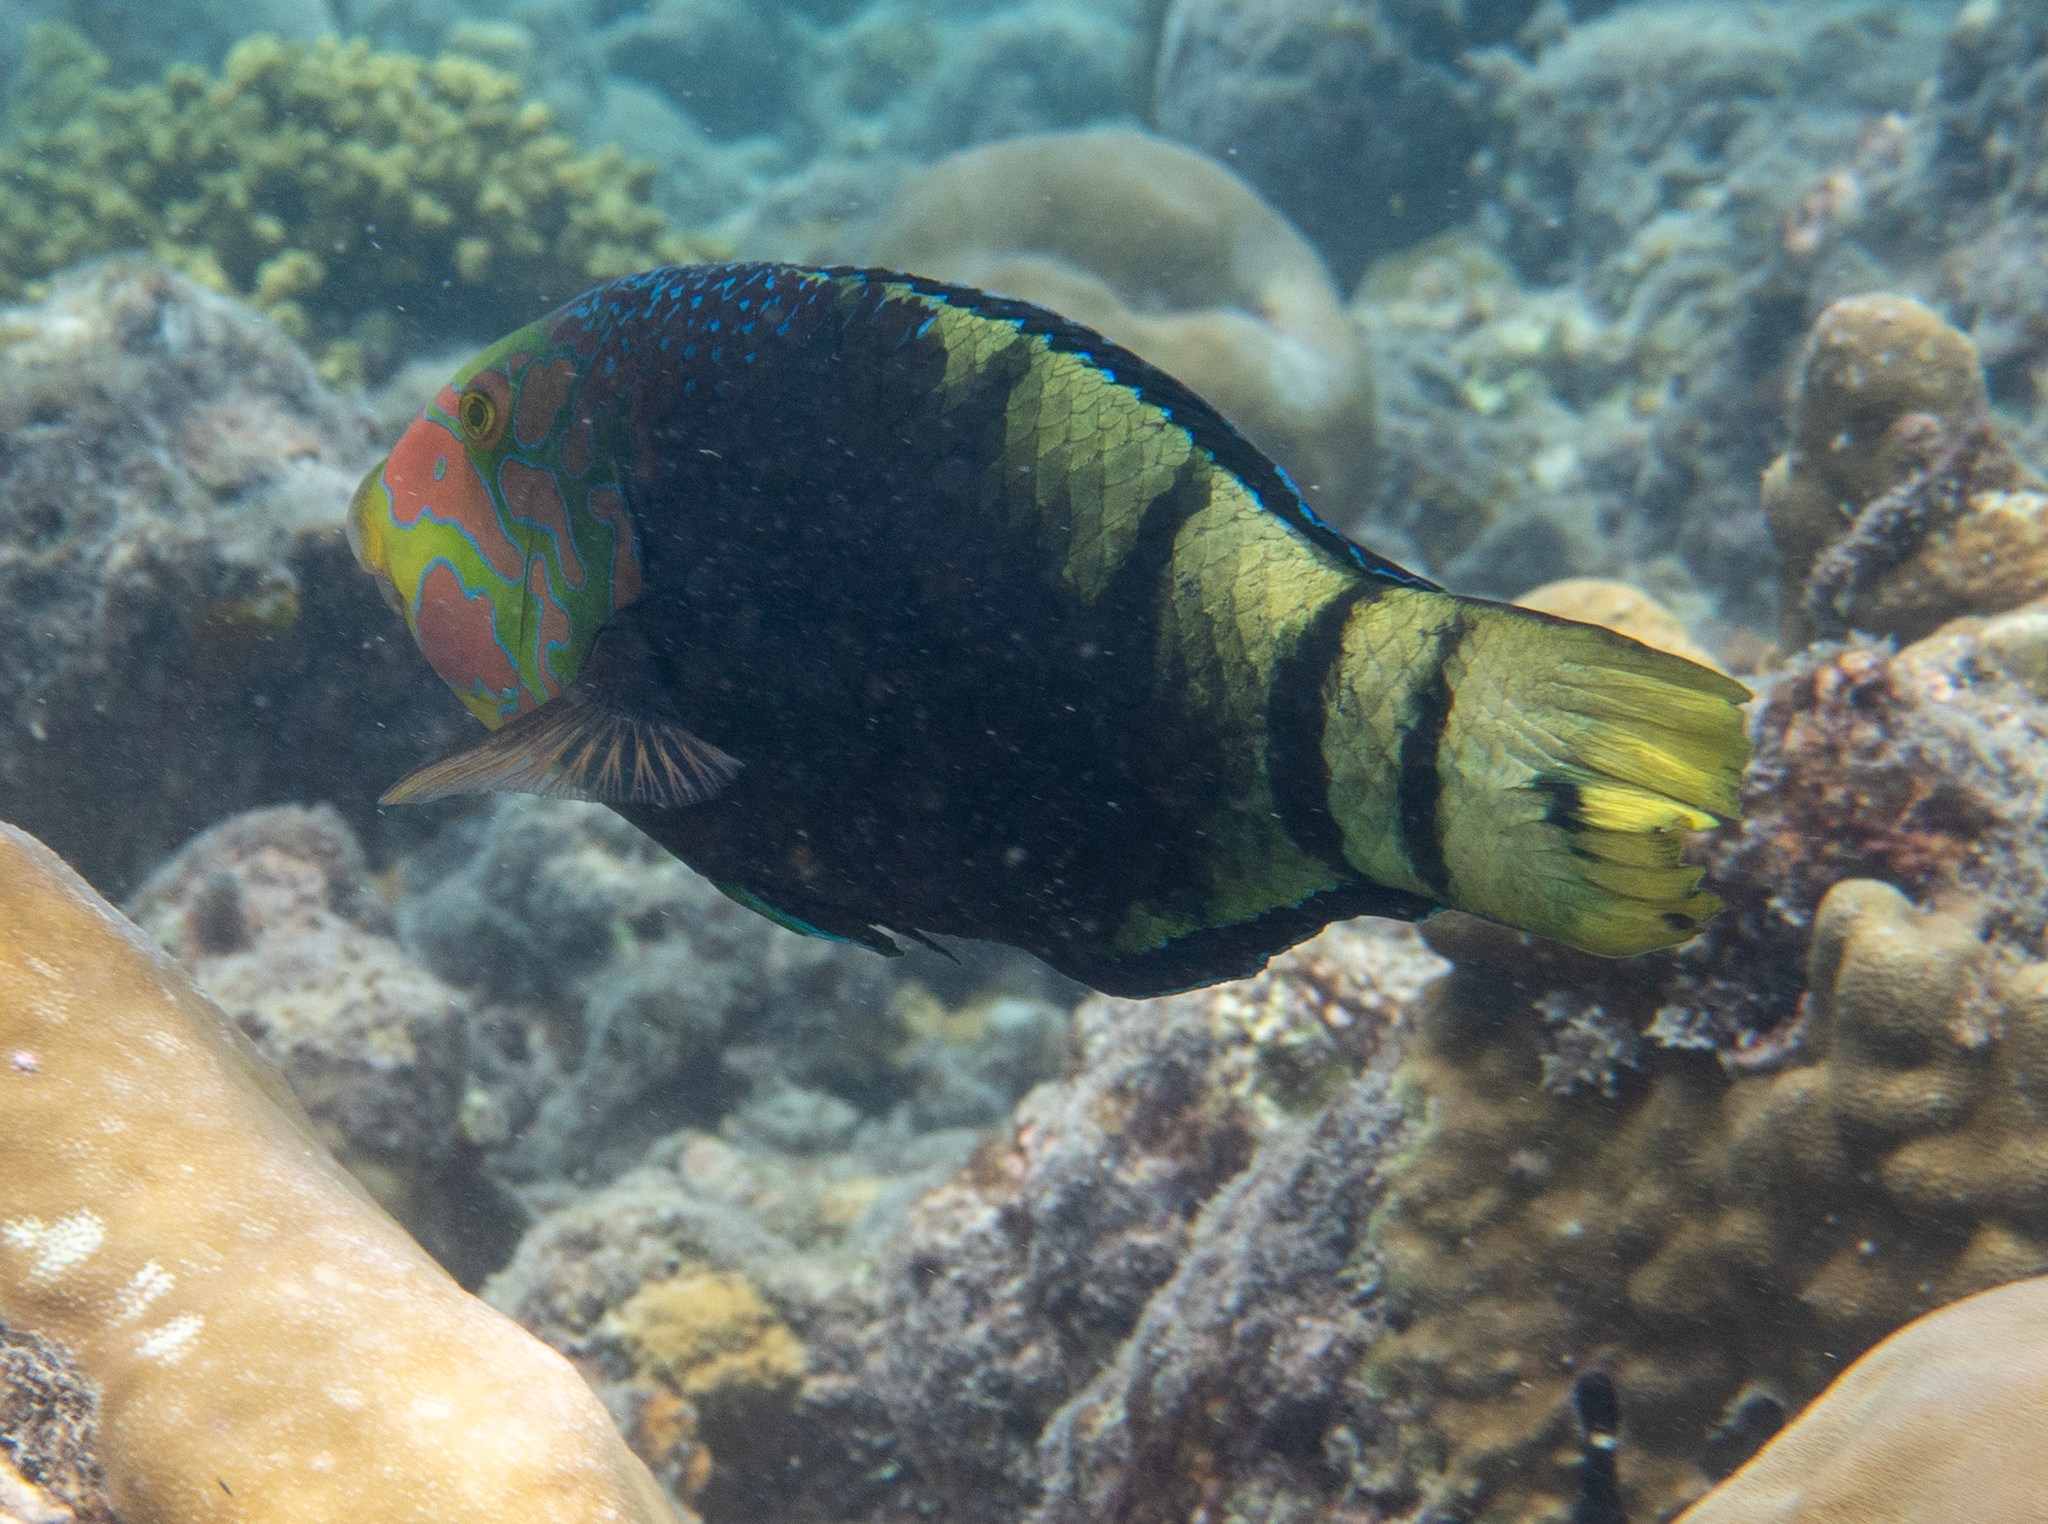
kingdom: Animalia
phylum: Chordata
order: Perciformes
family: Labridae
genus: Hemigymnus
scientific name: Hemigymnus fasciatus
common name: Barred thicklip
